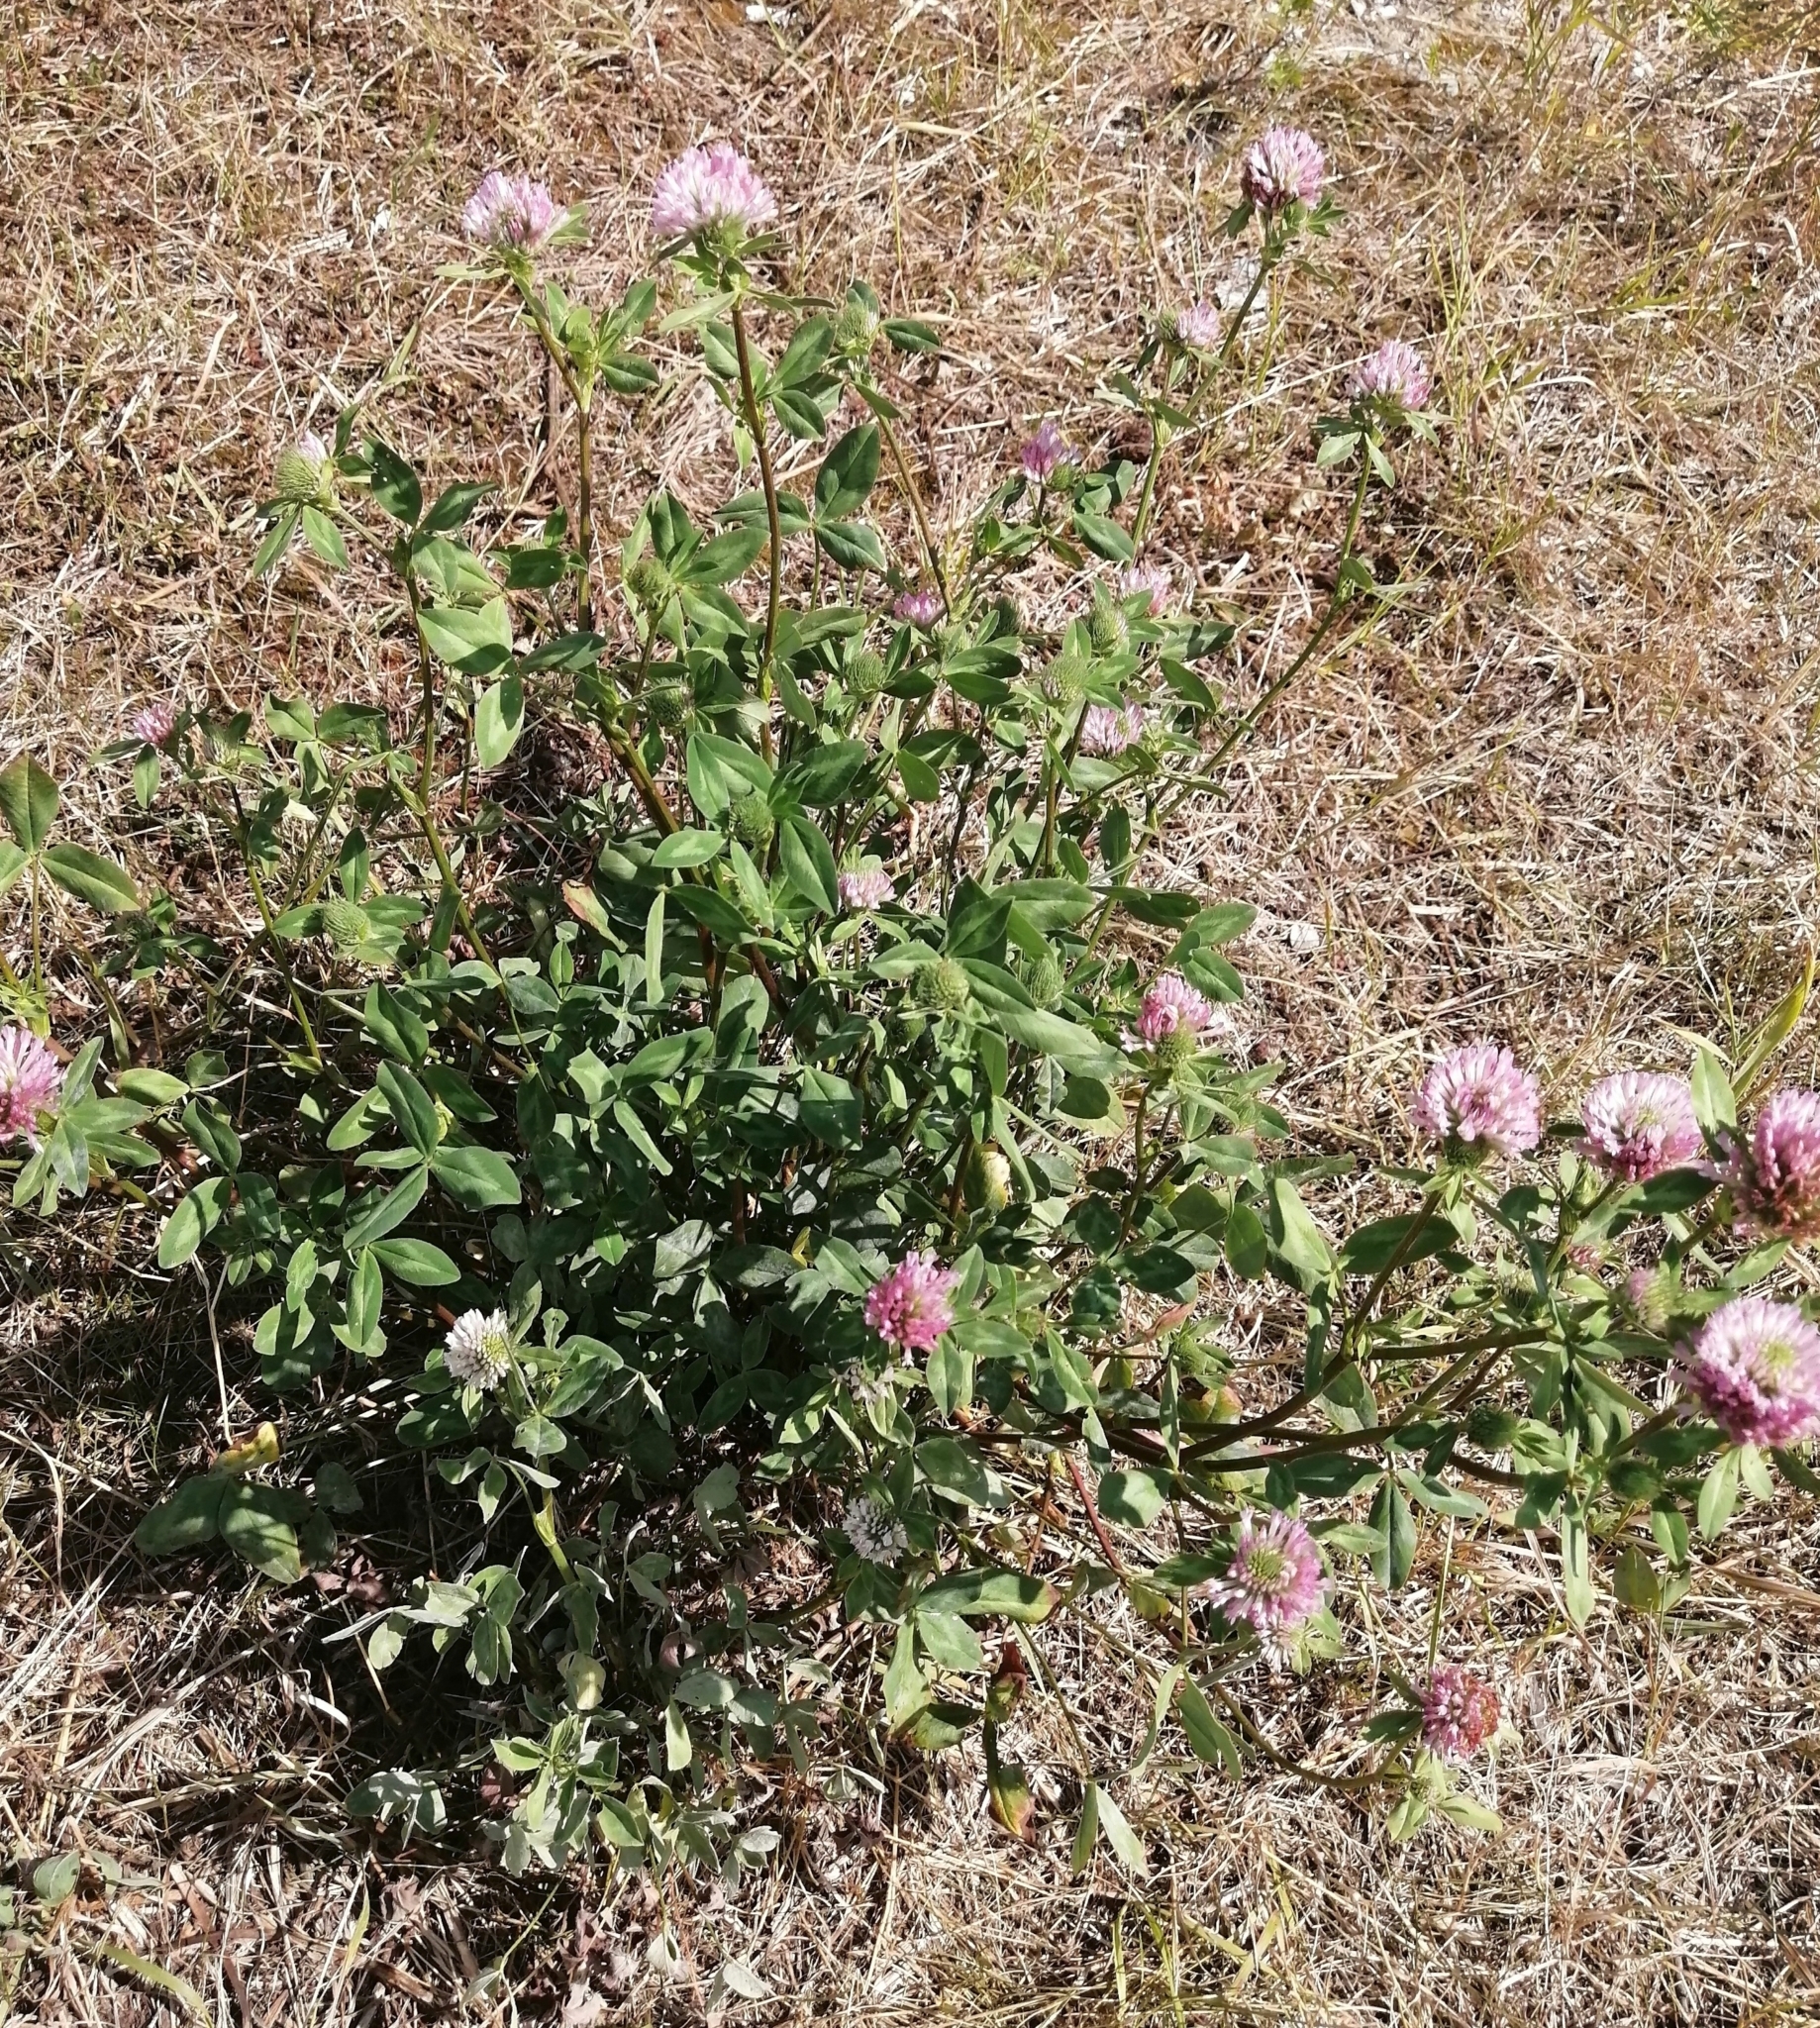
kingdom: Plantae
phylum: Tracheophyta
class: Magnoliopsida
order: Fabales
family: Fabaceae
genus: Trifolium
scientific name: Trifolium pratense
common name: Red clover
